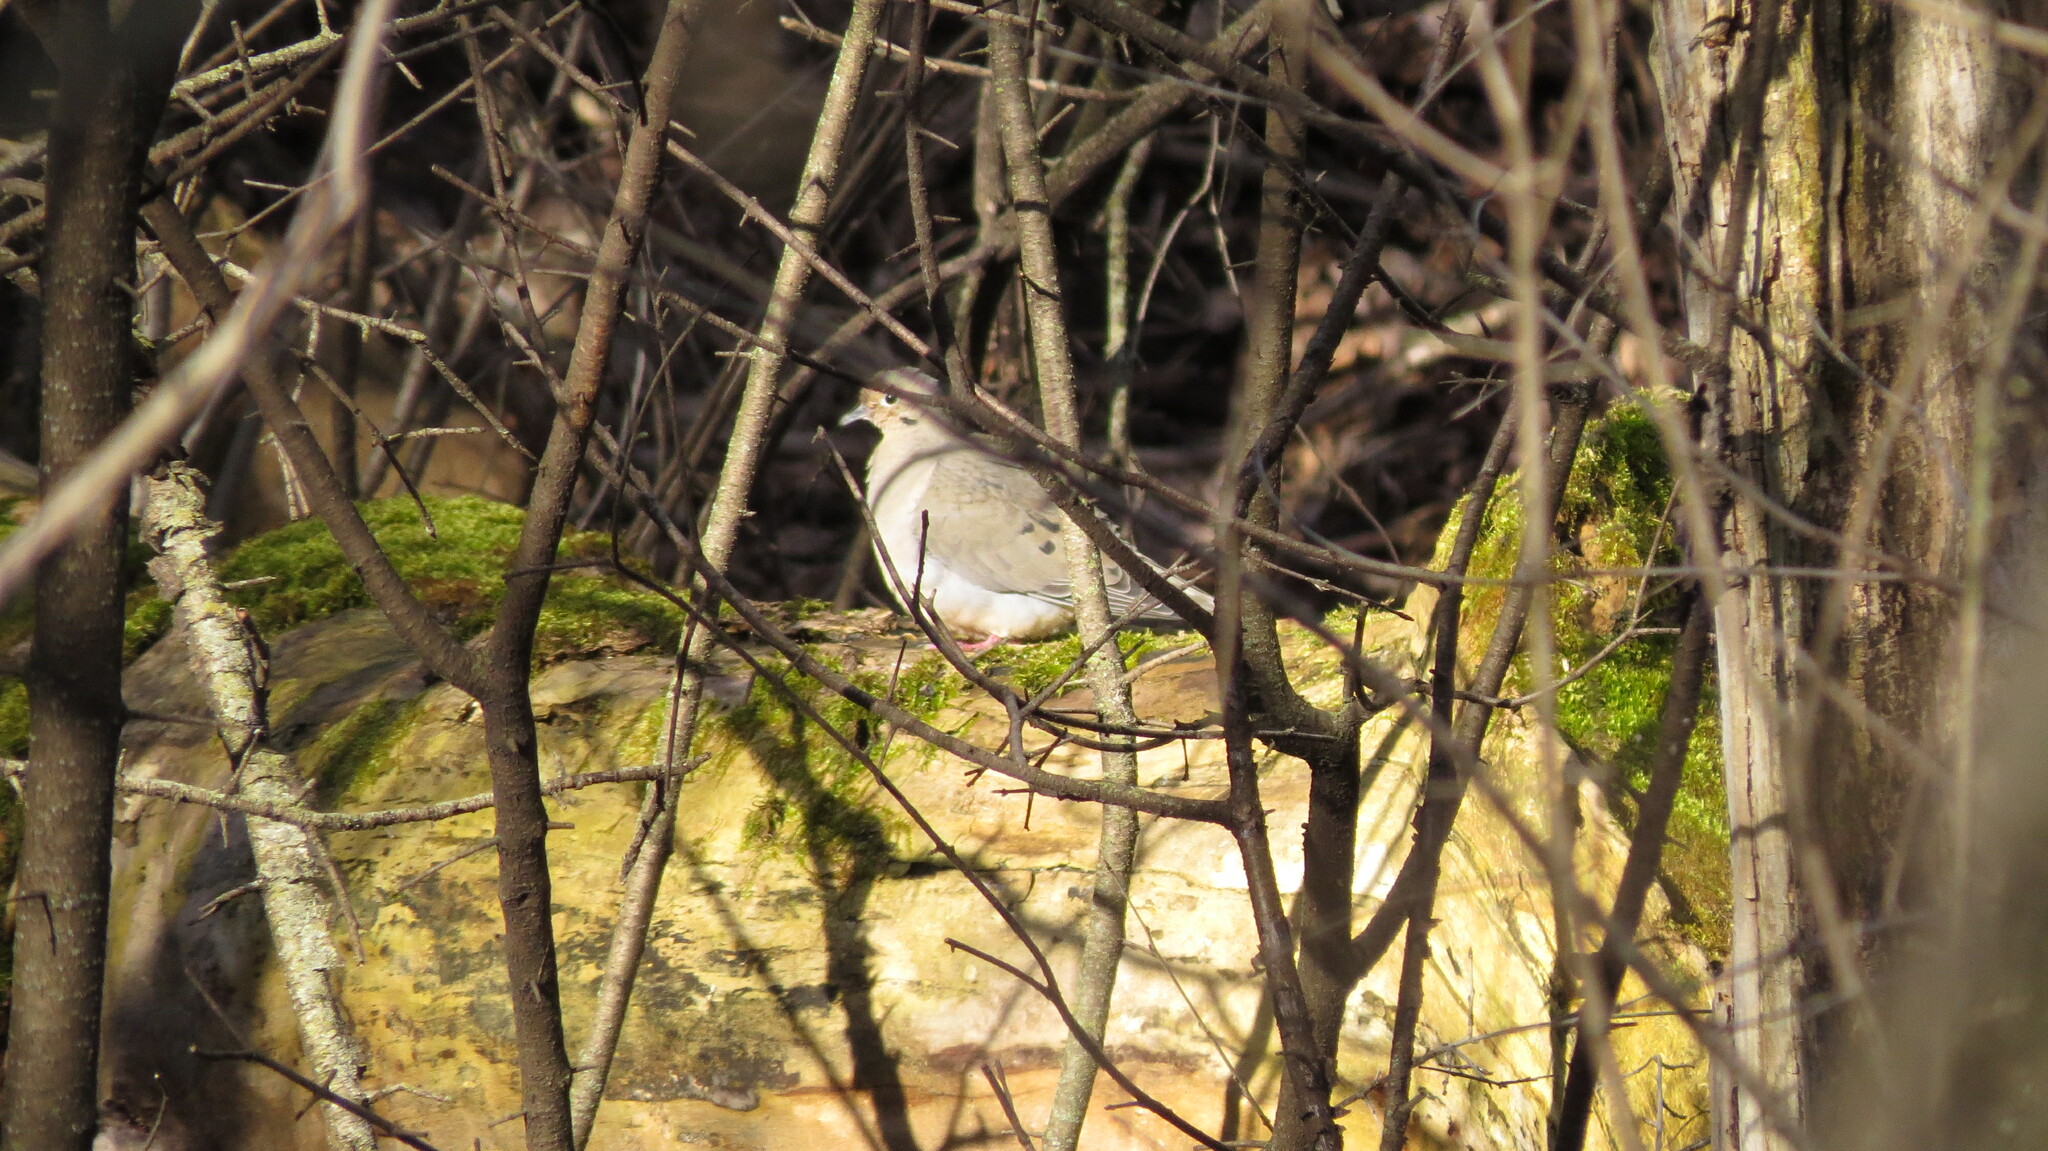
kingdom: Animalia
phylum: Chordata
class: Aves
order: Columbiformes
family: Columbidae
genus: Zenaida
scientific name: Zenaida macroura
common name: Mourning dove
